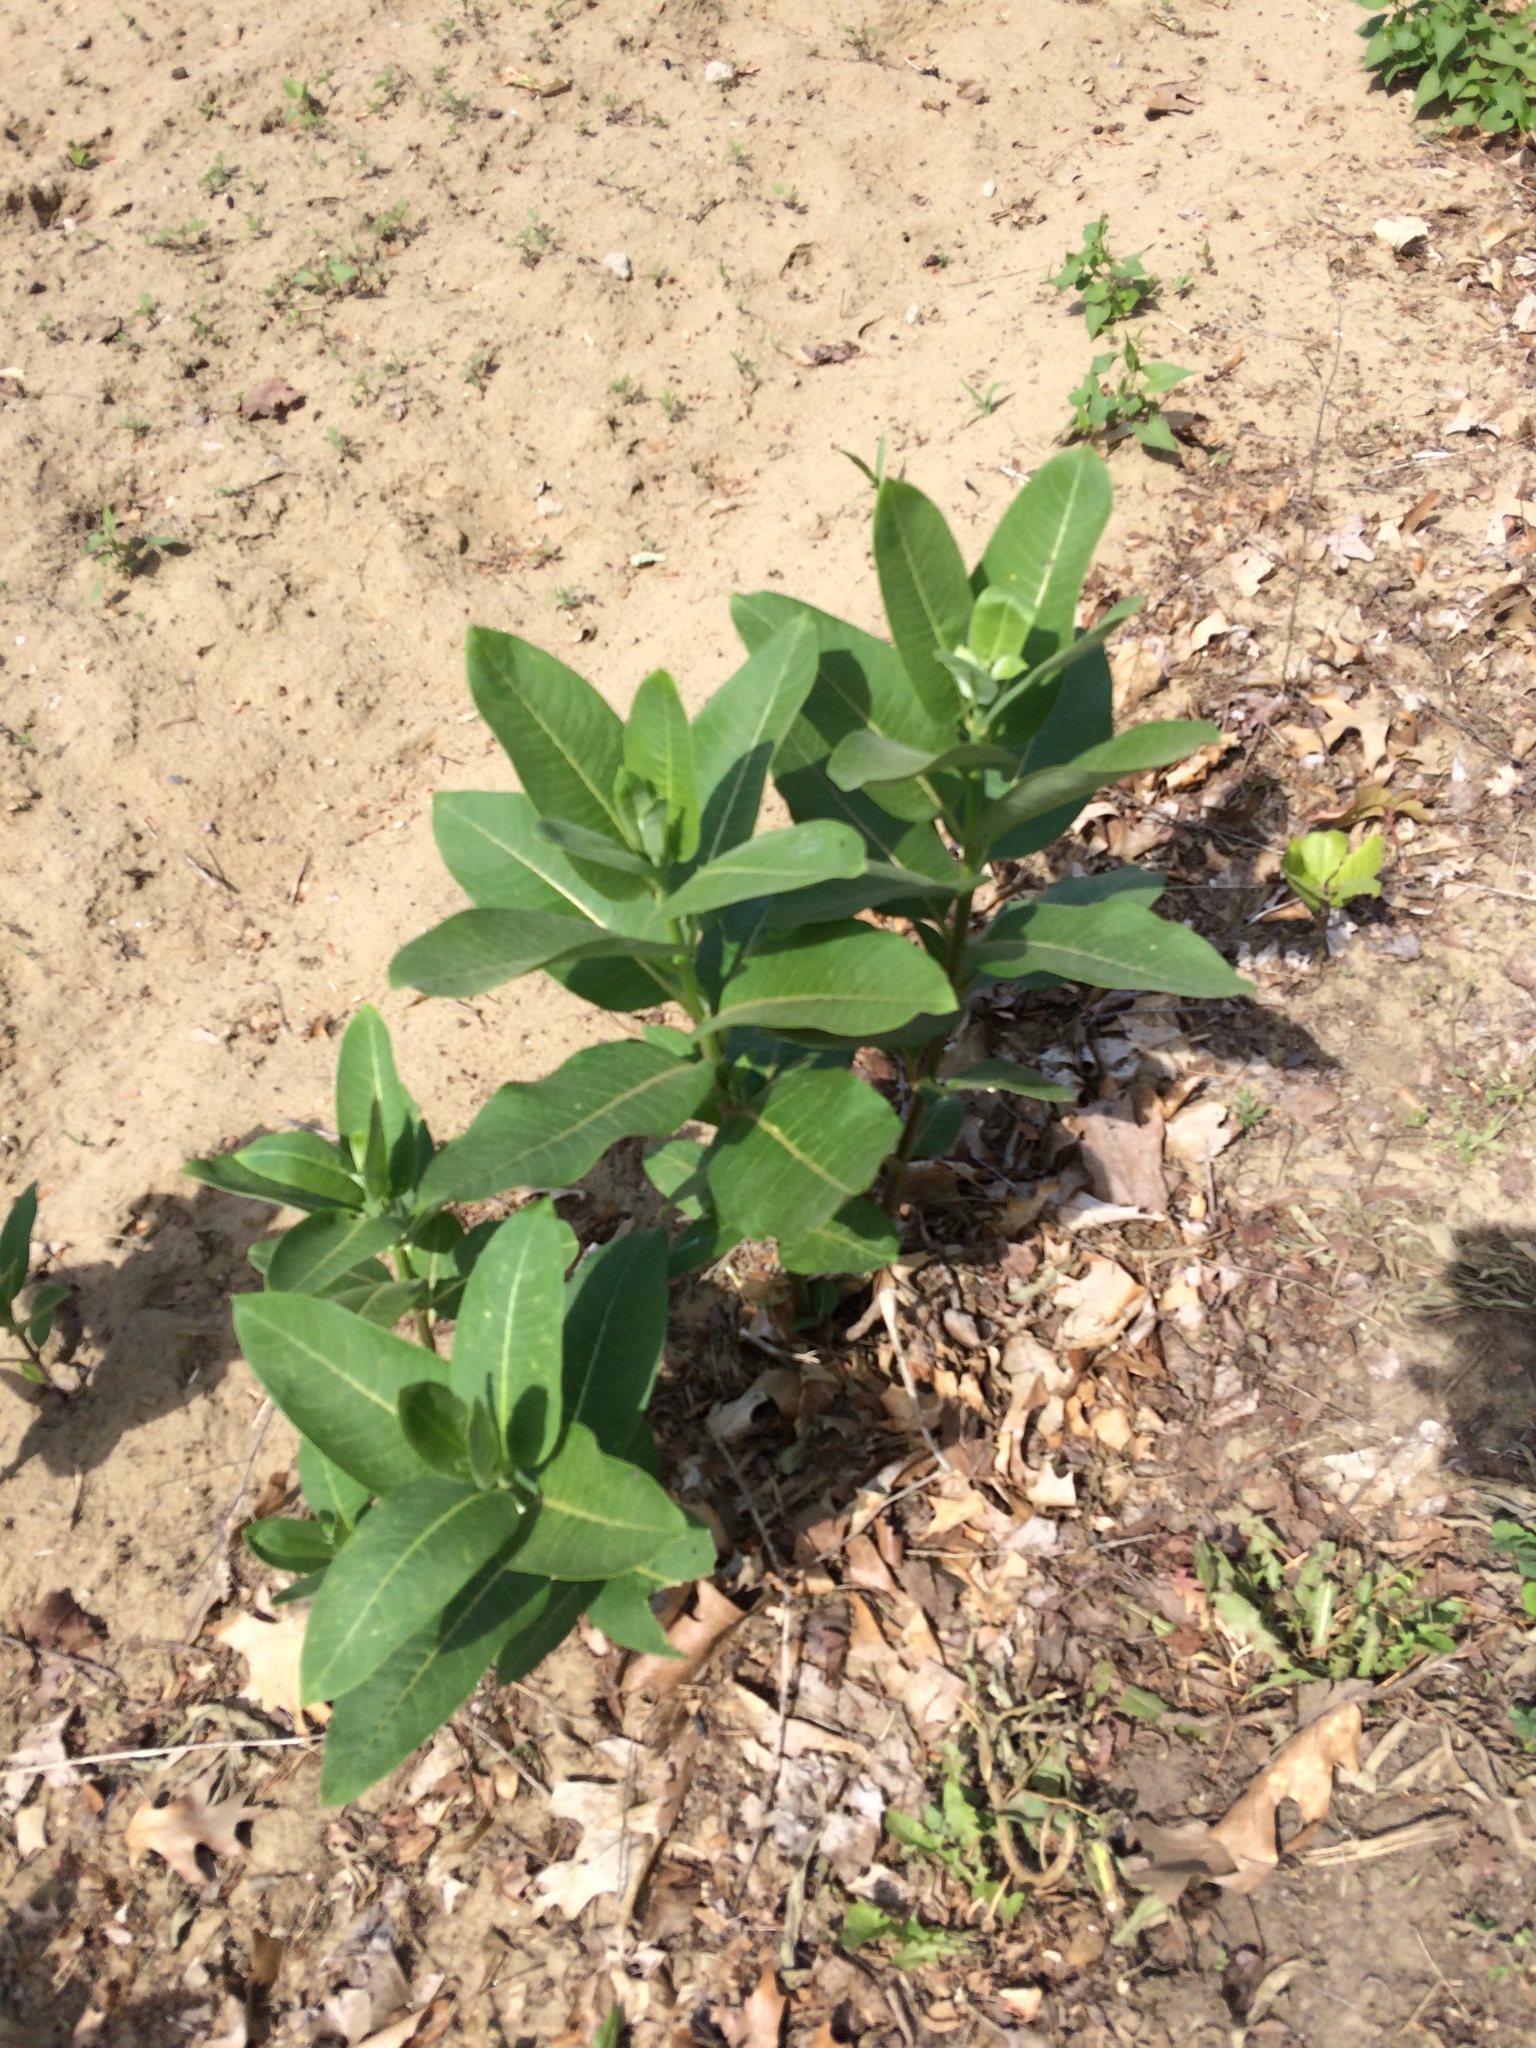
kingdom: Plantae
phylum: Tracheophyta
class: Magnoliopsida
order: Gentianales
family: Apocynaceae
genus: Asclepias
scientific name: Asclepias syriaca
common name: Common milkweed
